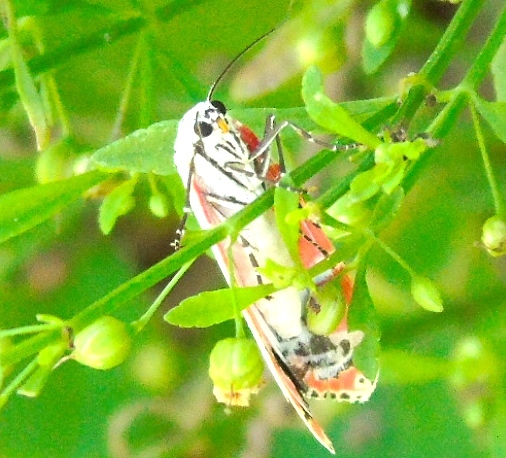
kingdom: Animalia
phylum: Arthropoda
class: Insecta
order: Lepidoptera
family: Erebidae
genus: Utetheisa
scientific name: Utetheisa ornatrix
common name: Beautiful utetheisa
